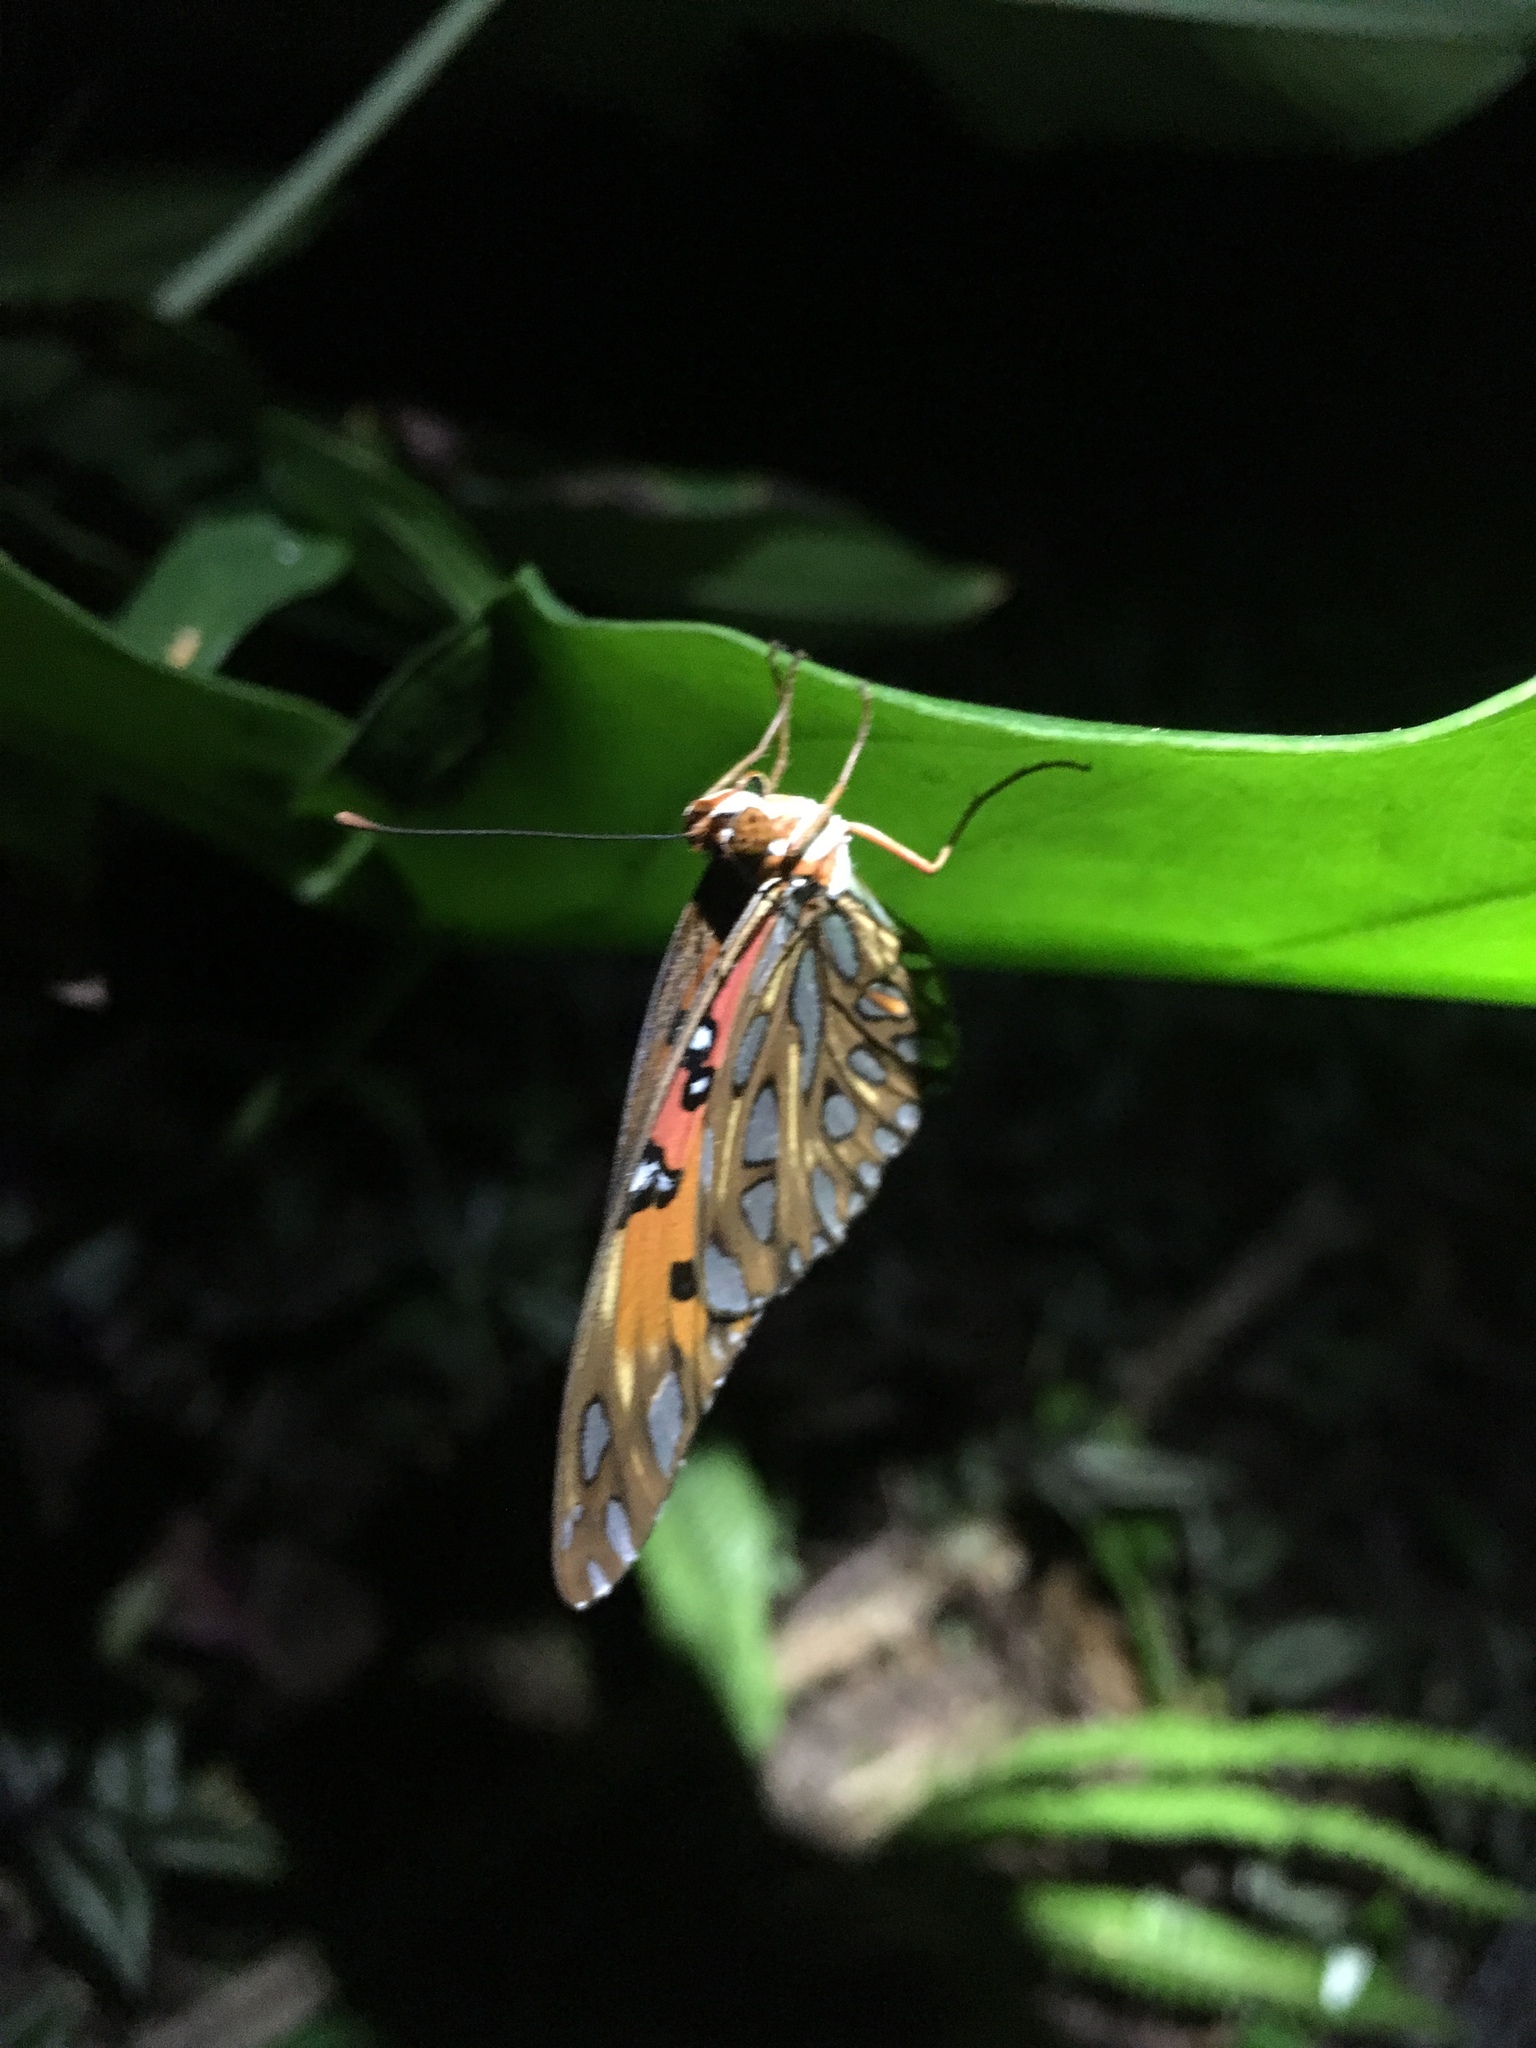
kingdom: Animalia
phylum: Arthropoda
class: Insecta
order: Lepidoptera
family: Nymphalidae
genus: Dione
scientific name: Dione vanillae
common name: Gulf fritillary
